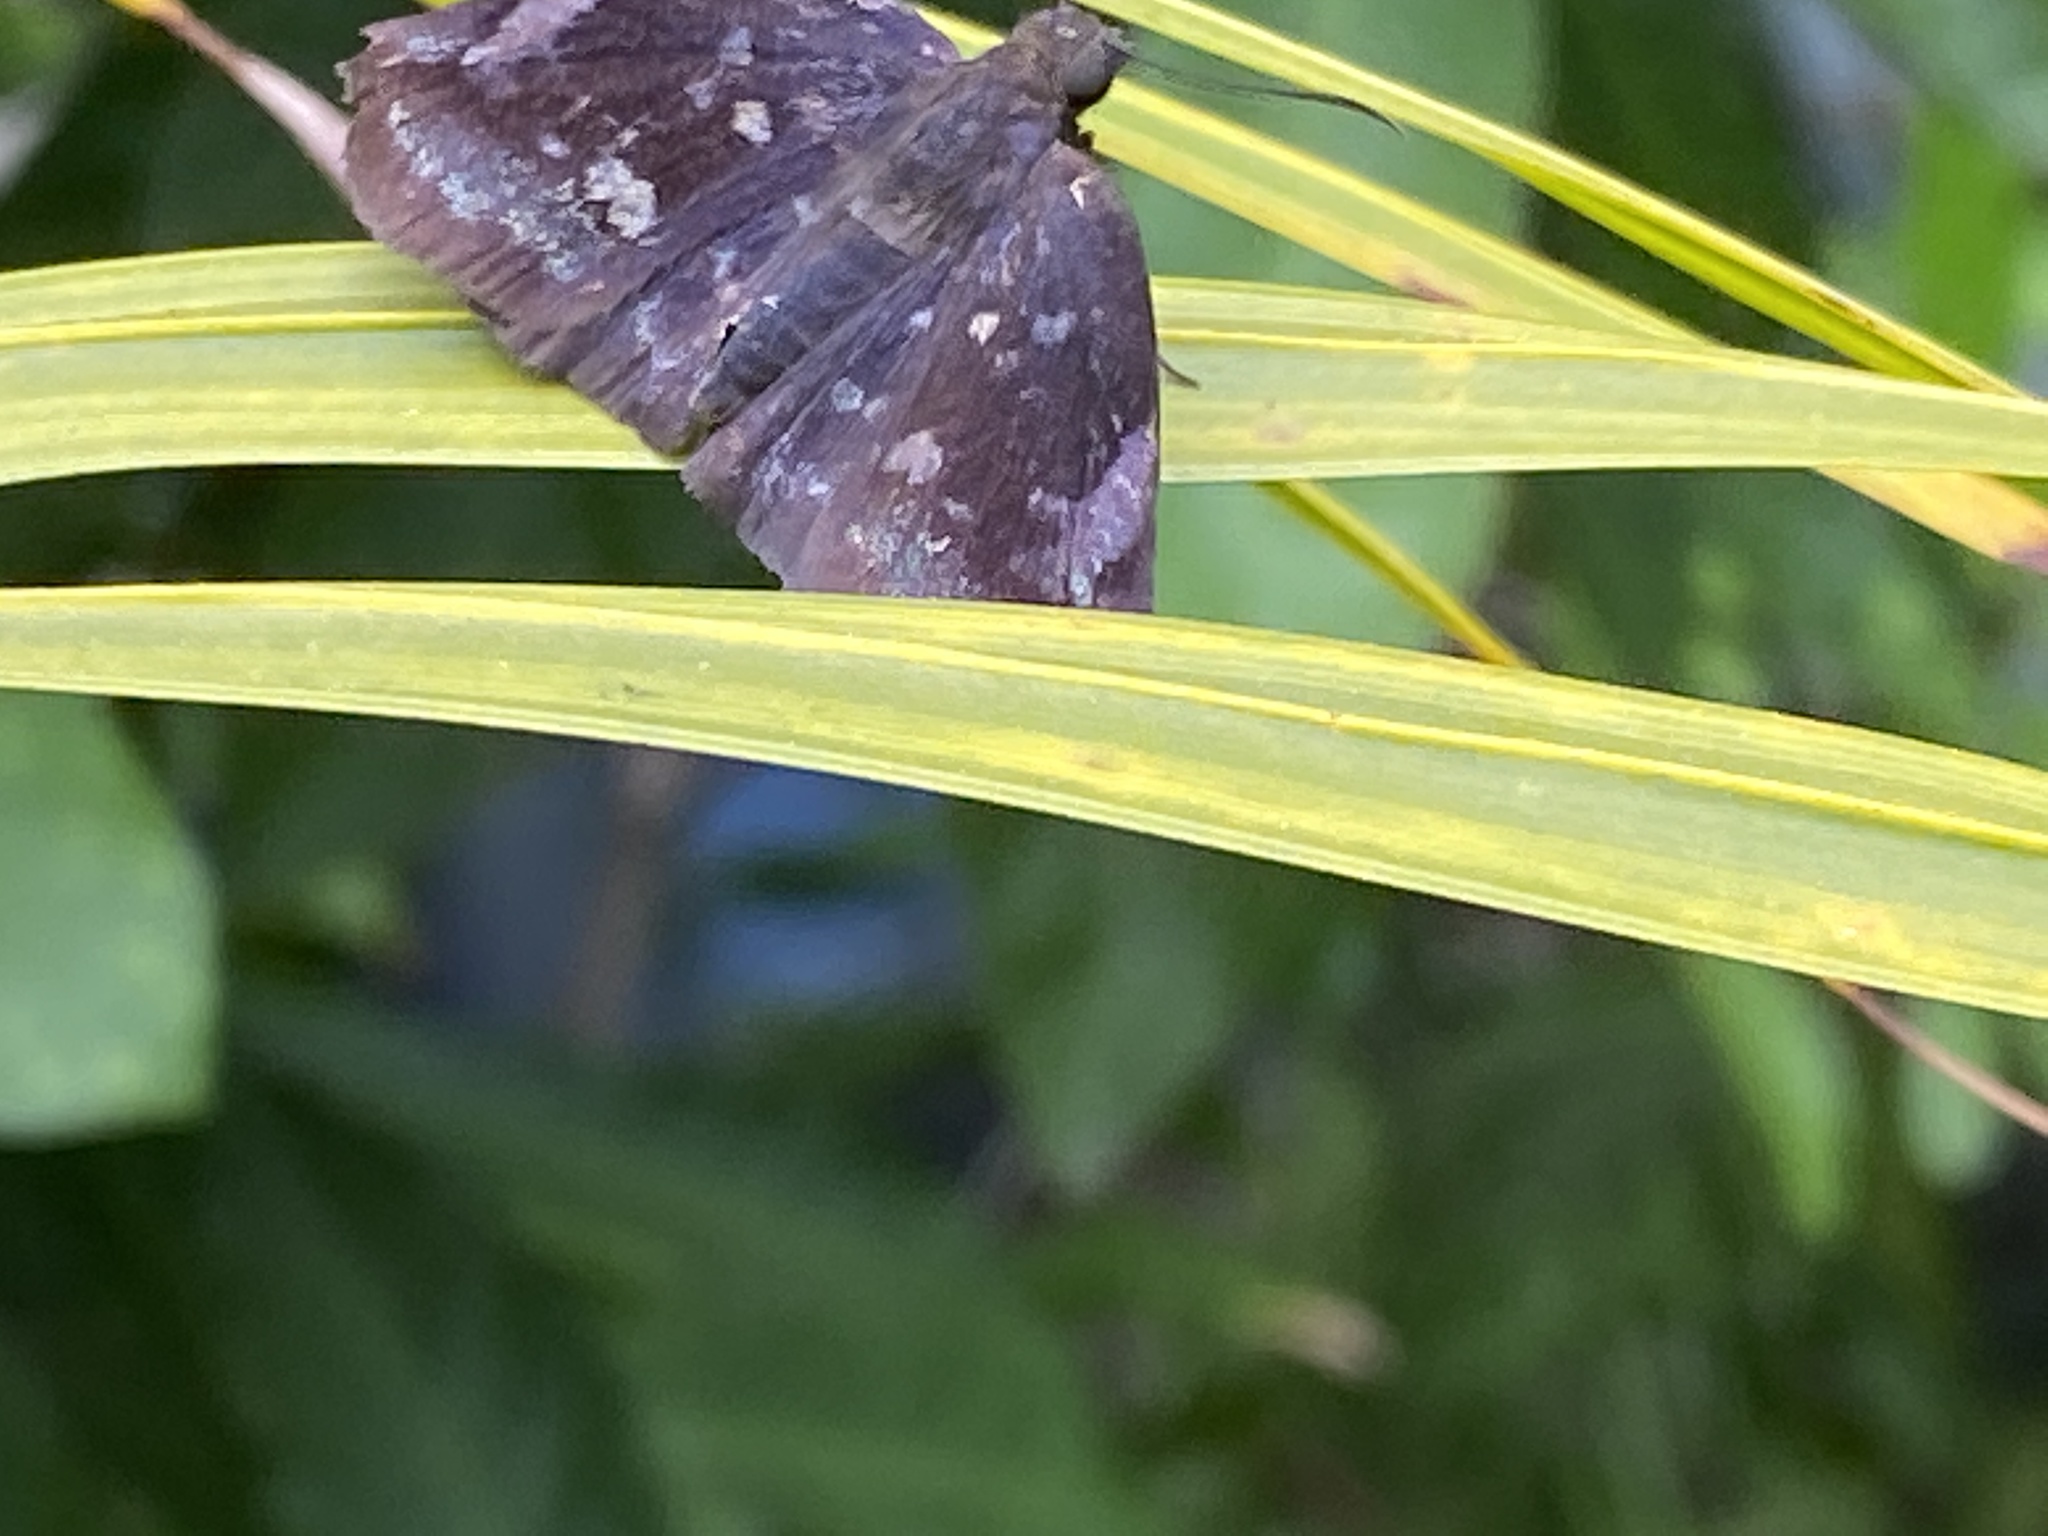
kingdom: Animalia
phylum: Arthropoda
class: Insecta
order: Lepidoptera
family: Hesperiidae
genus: Achlyodes
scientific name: Achlyodes thraso
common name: Sickle-winged skipper
